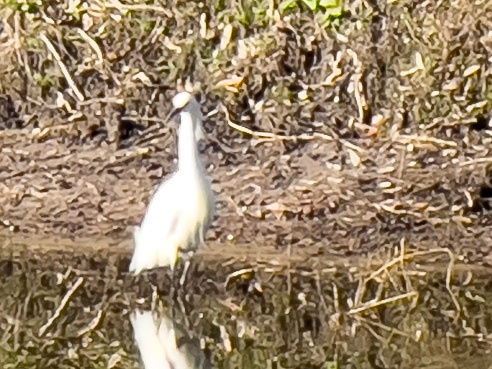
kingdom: Animalia
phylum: Chordata
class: Aves
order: Pelecaniformes
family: Ardeidae
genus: Egretta
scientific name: Egretta thula
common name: Snowy egret
